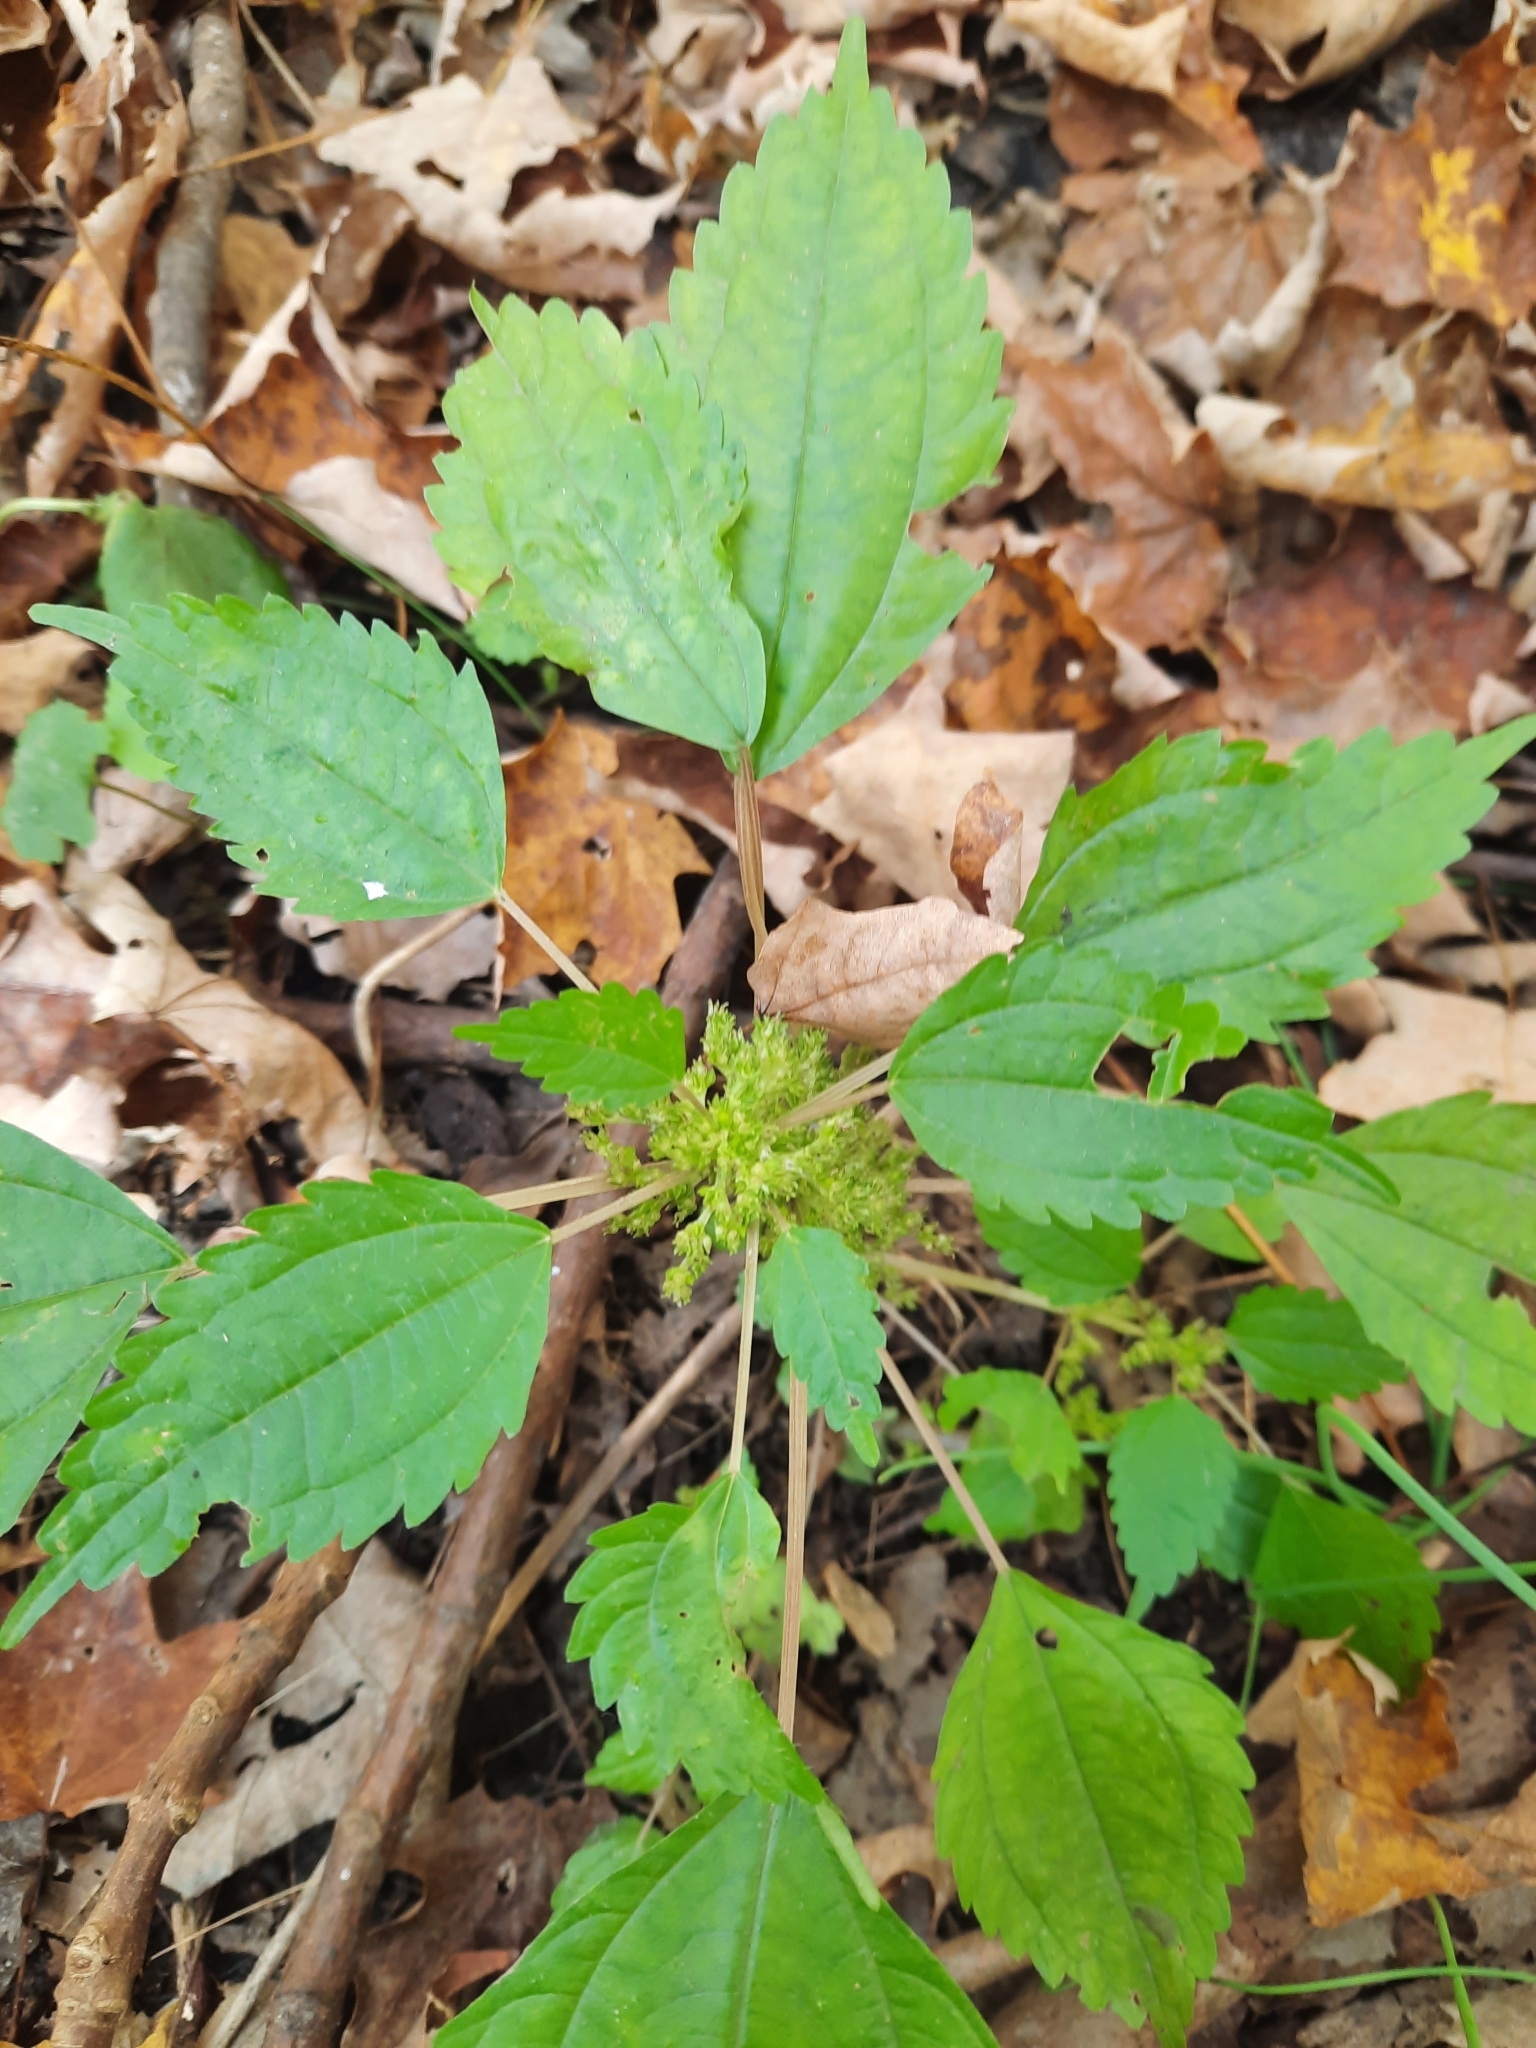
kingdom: Plantae
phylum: Tracheophyta
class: Magnoliopsida
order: Rosales
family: Urticaceae
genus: Pilea
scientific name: Pilea pumila
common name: Clearweed
